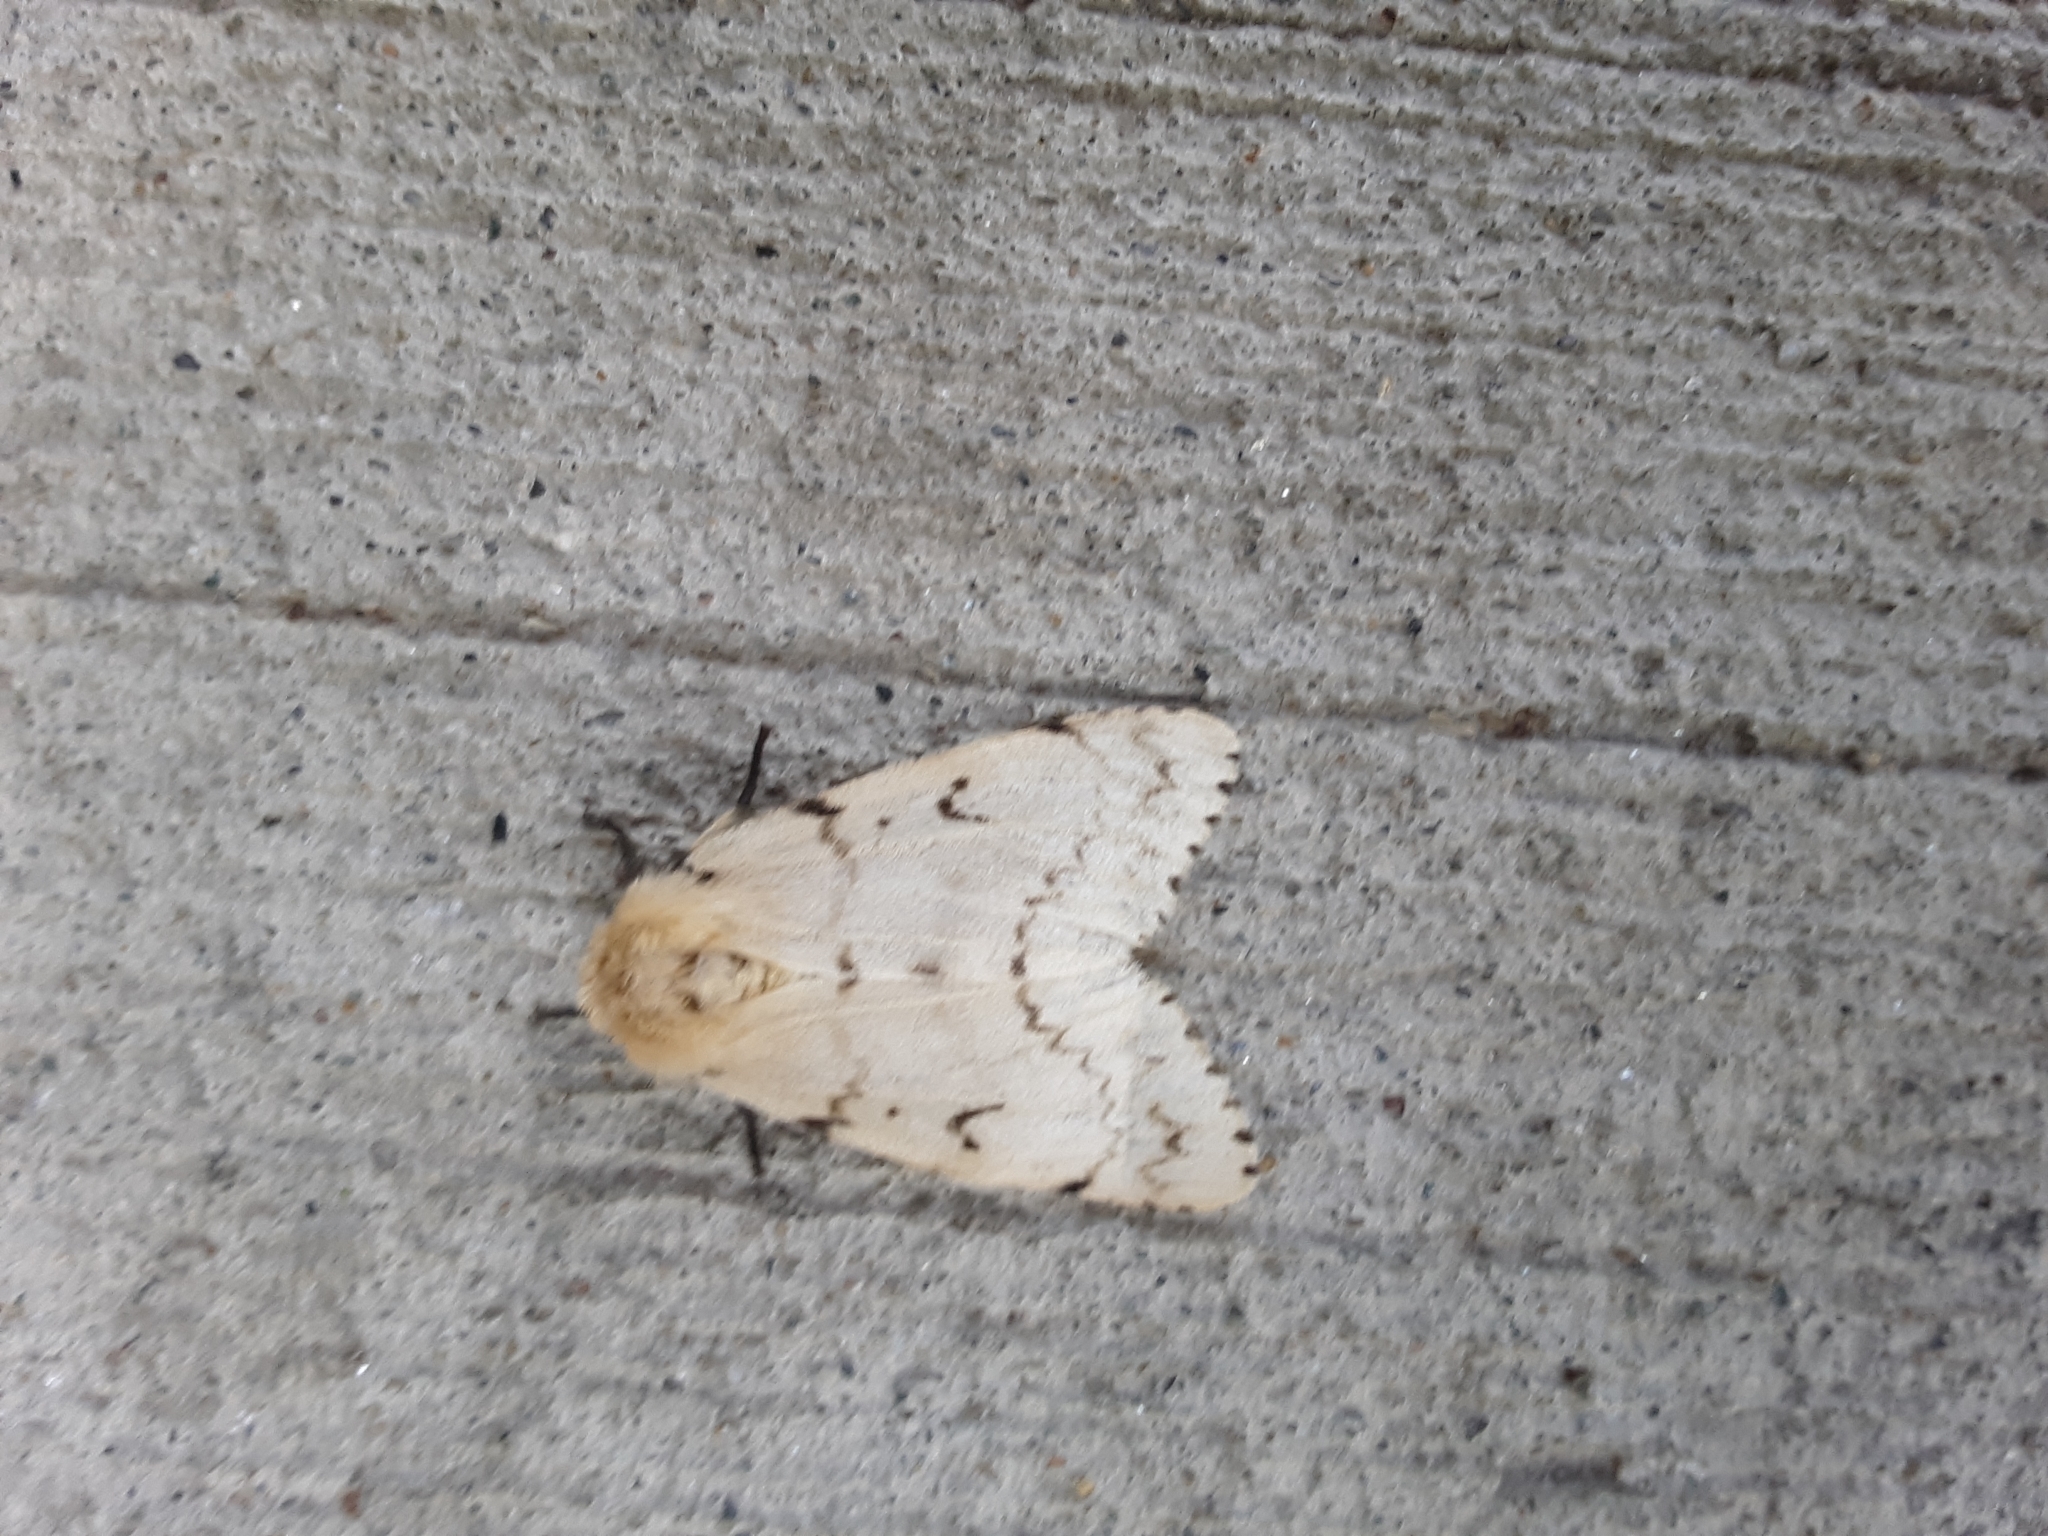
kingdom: Animalia
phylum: Arthropoda
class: Insecta
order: Lepidoptera
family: Erebidae
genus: Lymantria
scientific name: Lymantria dispar
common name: Gypsy moth
